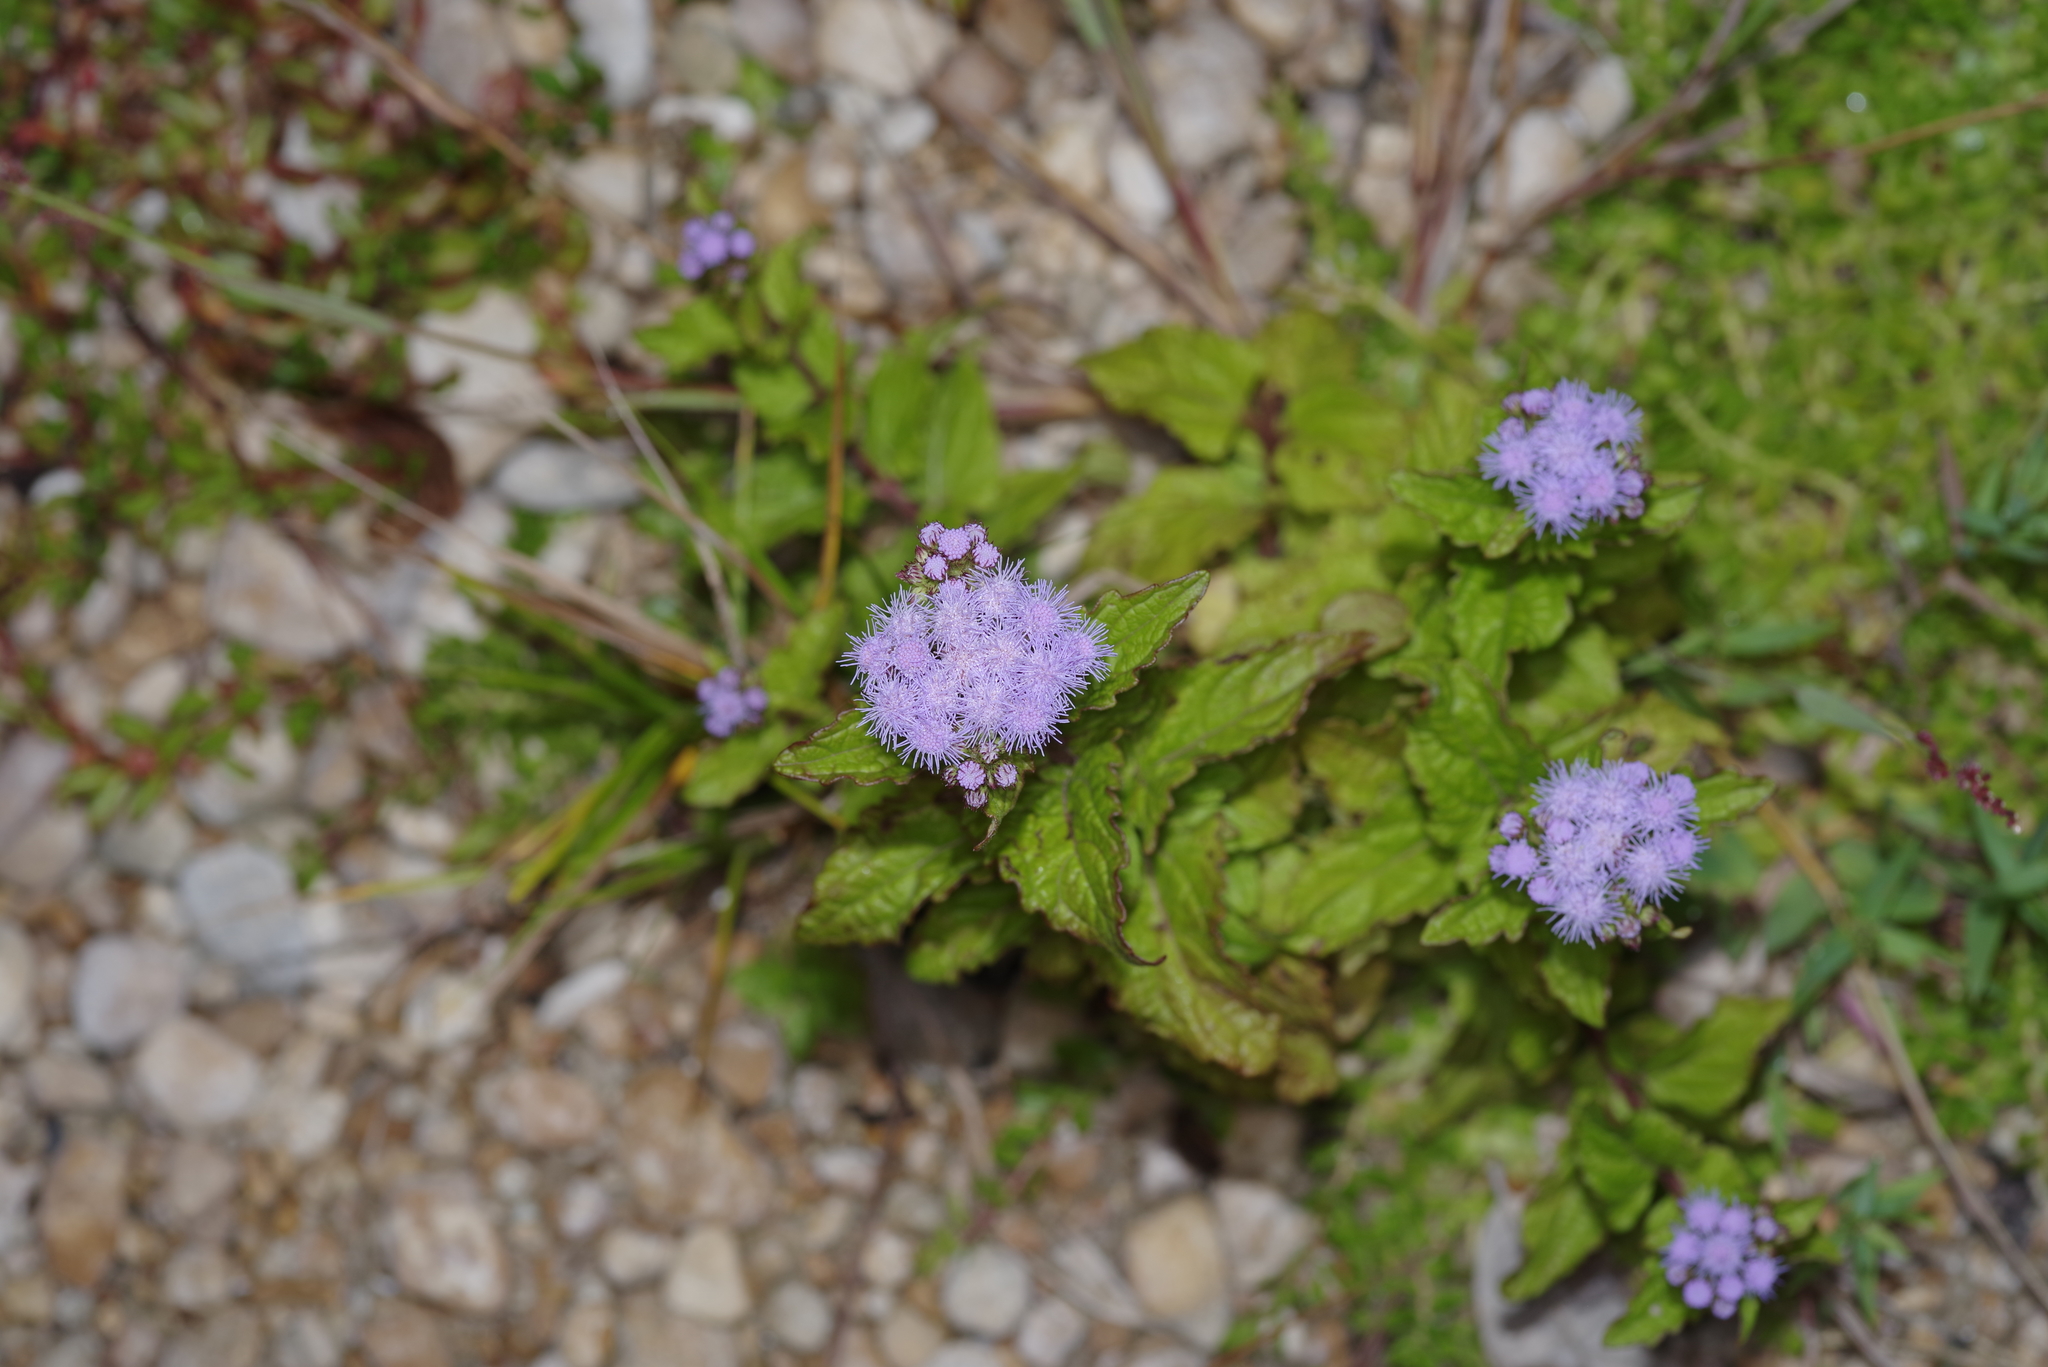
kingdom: Plantae
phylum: Tracheophyta
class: Magnoliopsida
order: Asterales
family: Asteraceae
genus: Conoclinium
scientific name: Conoclinium coelestinum
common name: Blue mistflower
